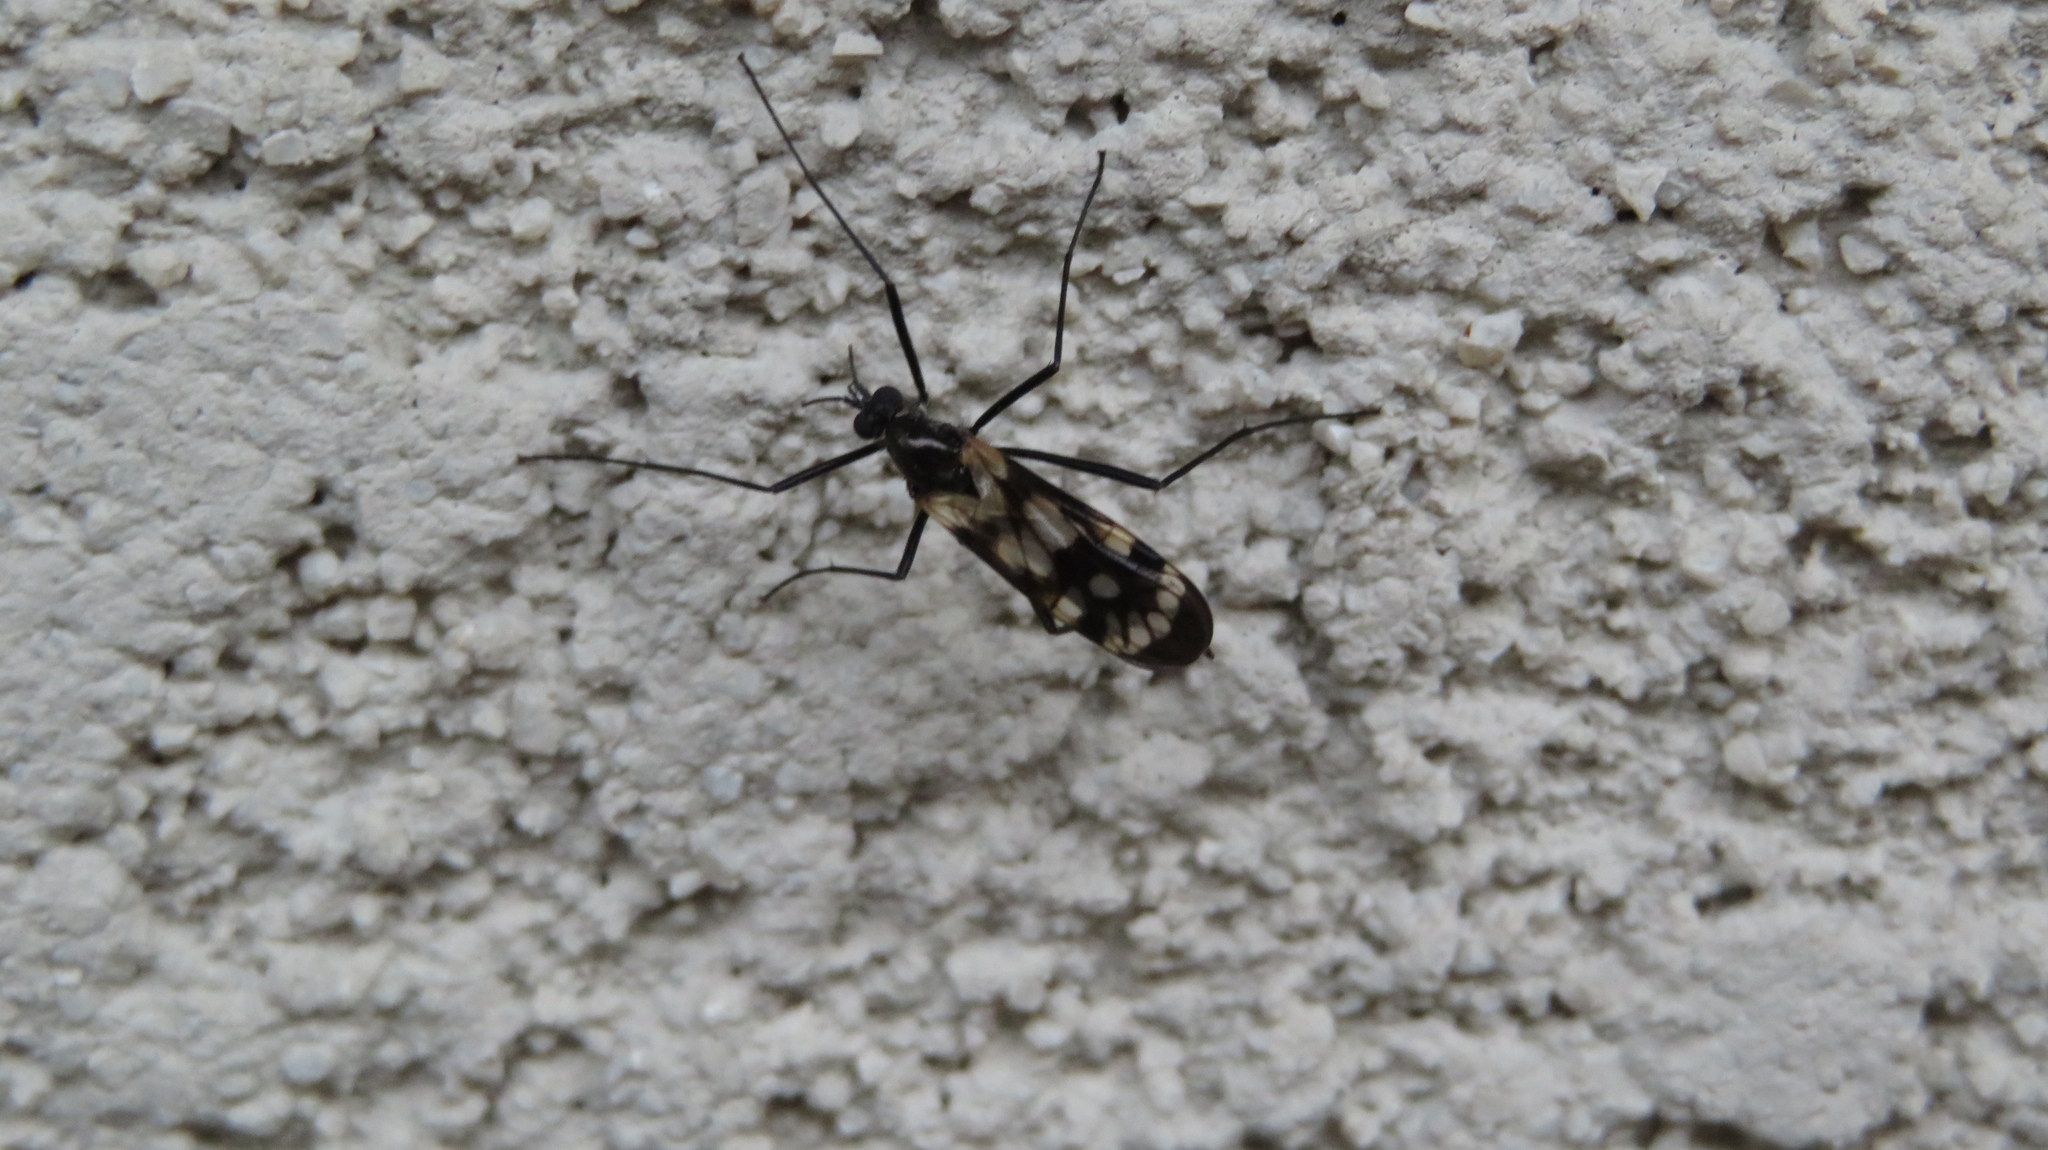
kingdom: Animalia
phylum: Arthropoda
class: Insecta
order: Diptera
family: Pachyneuridae
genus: Haruka
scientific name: Haruka elegans
